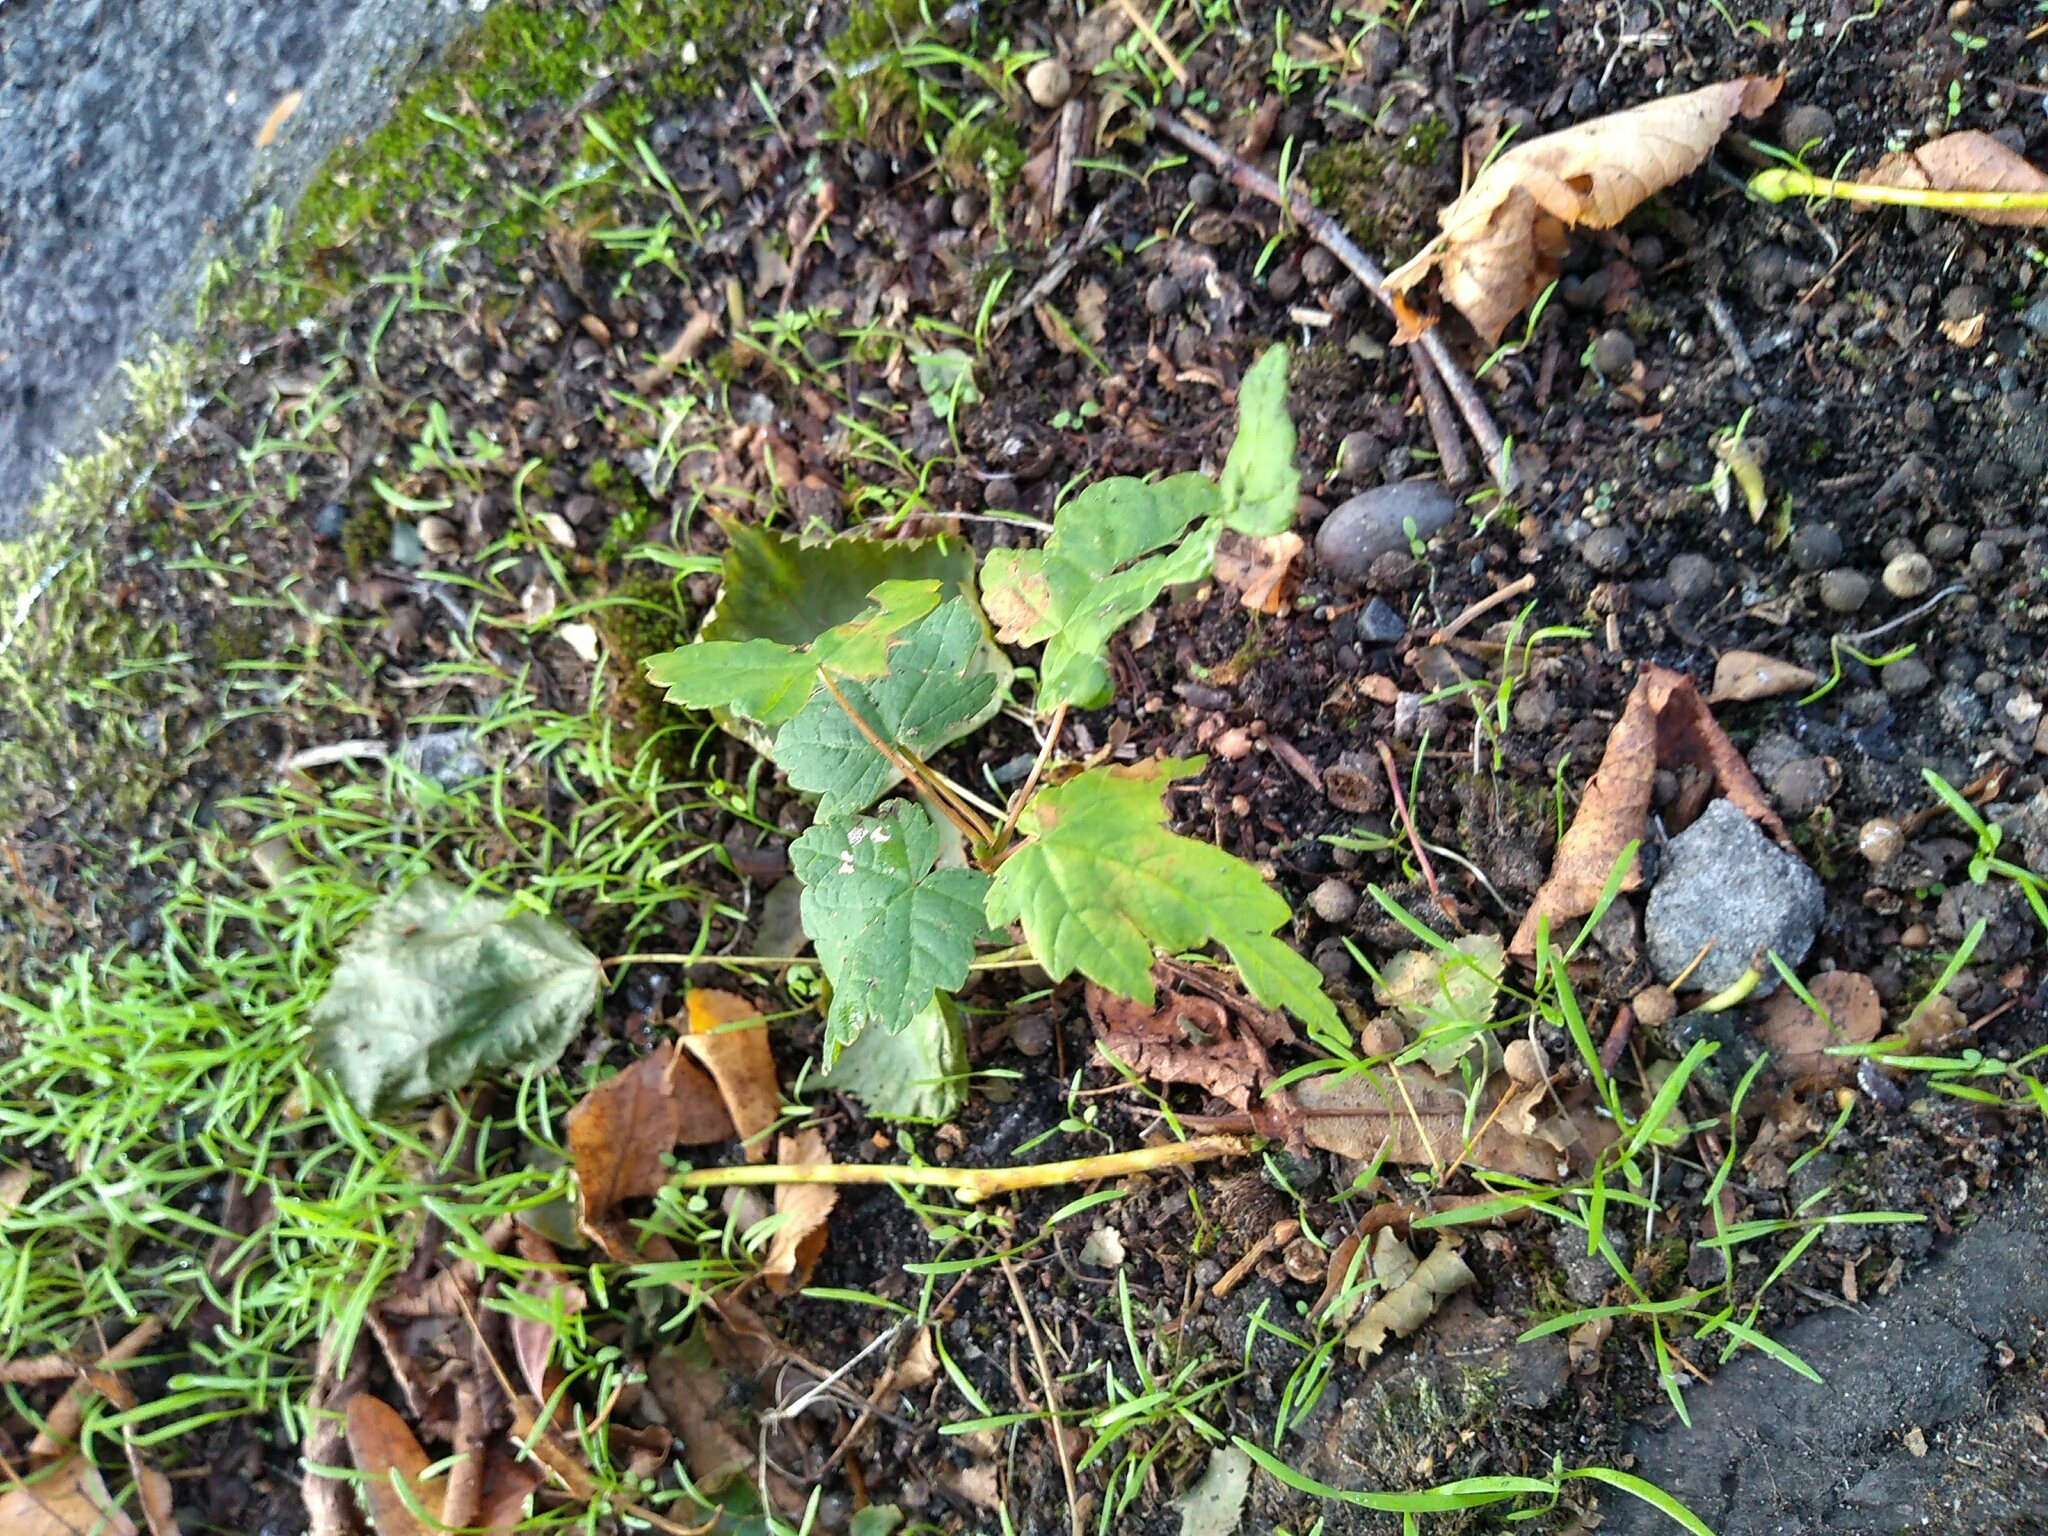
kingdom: Plantae
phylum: Tracheophyta
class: Magnoliopsida
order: Sapindales
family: Sapindaceae
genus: Acer
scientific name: Acer pseudoplatanus
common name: Sycamore
